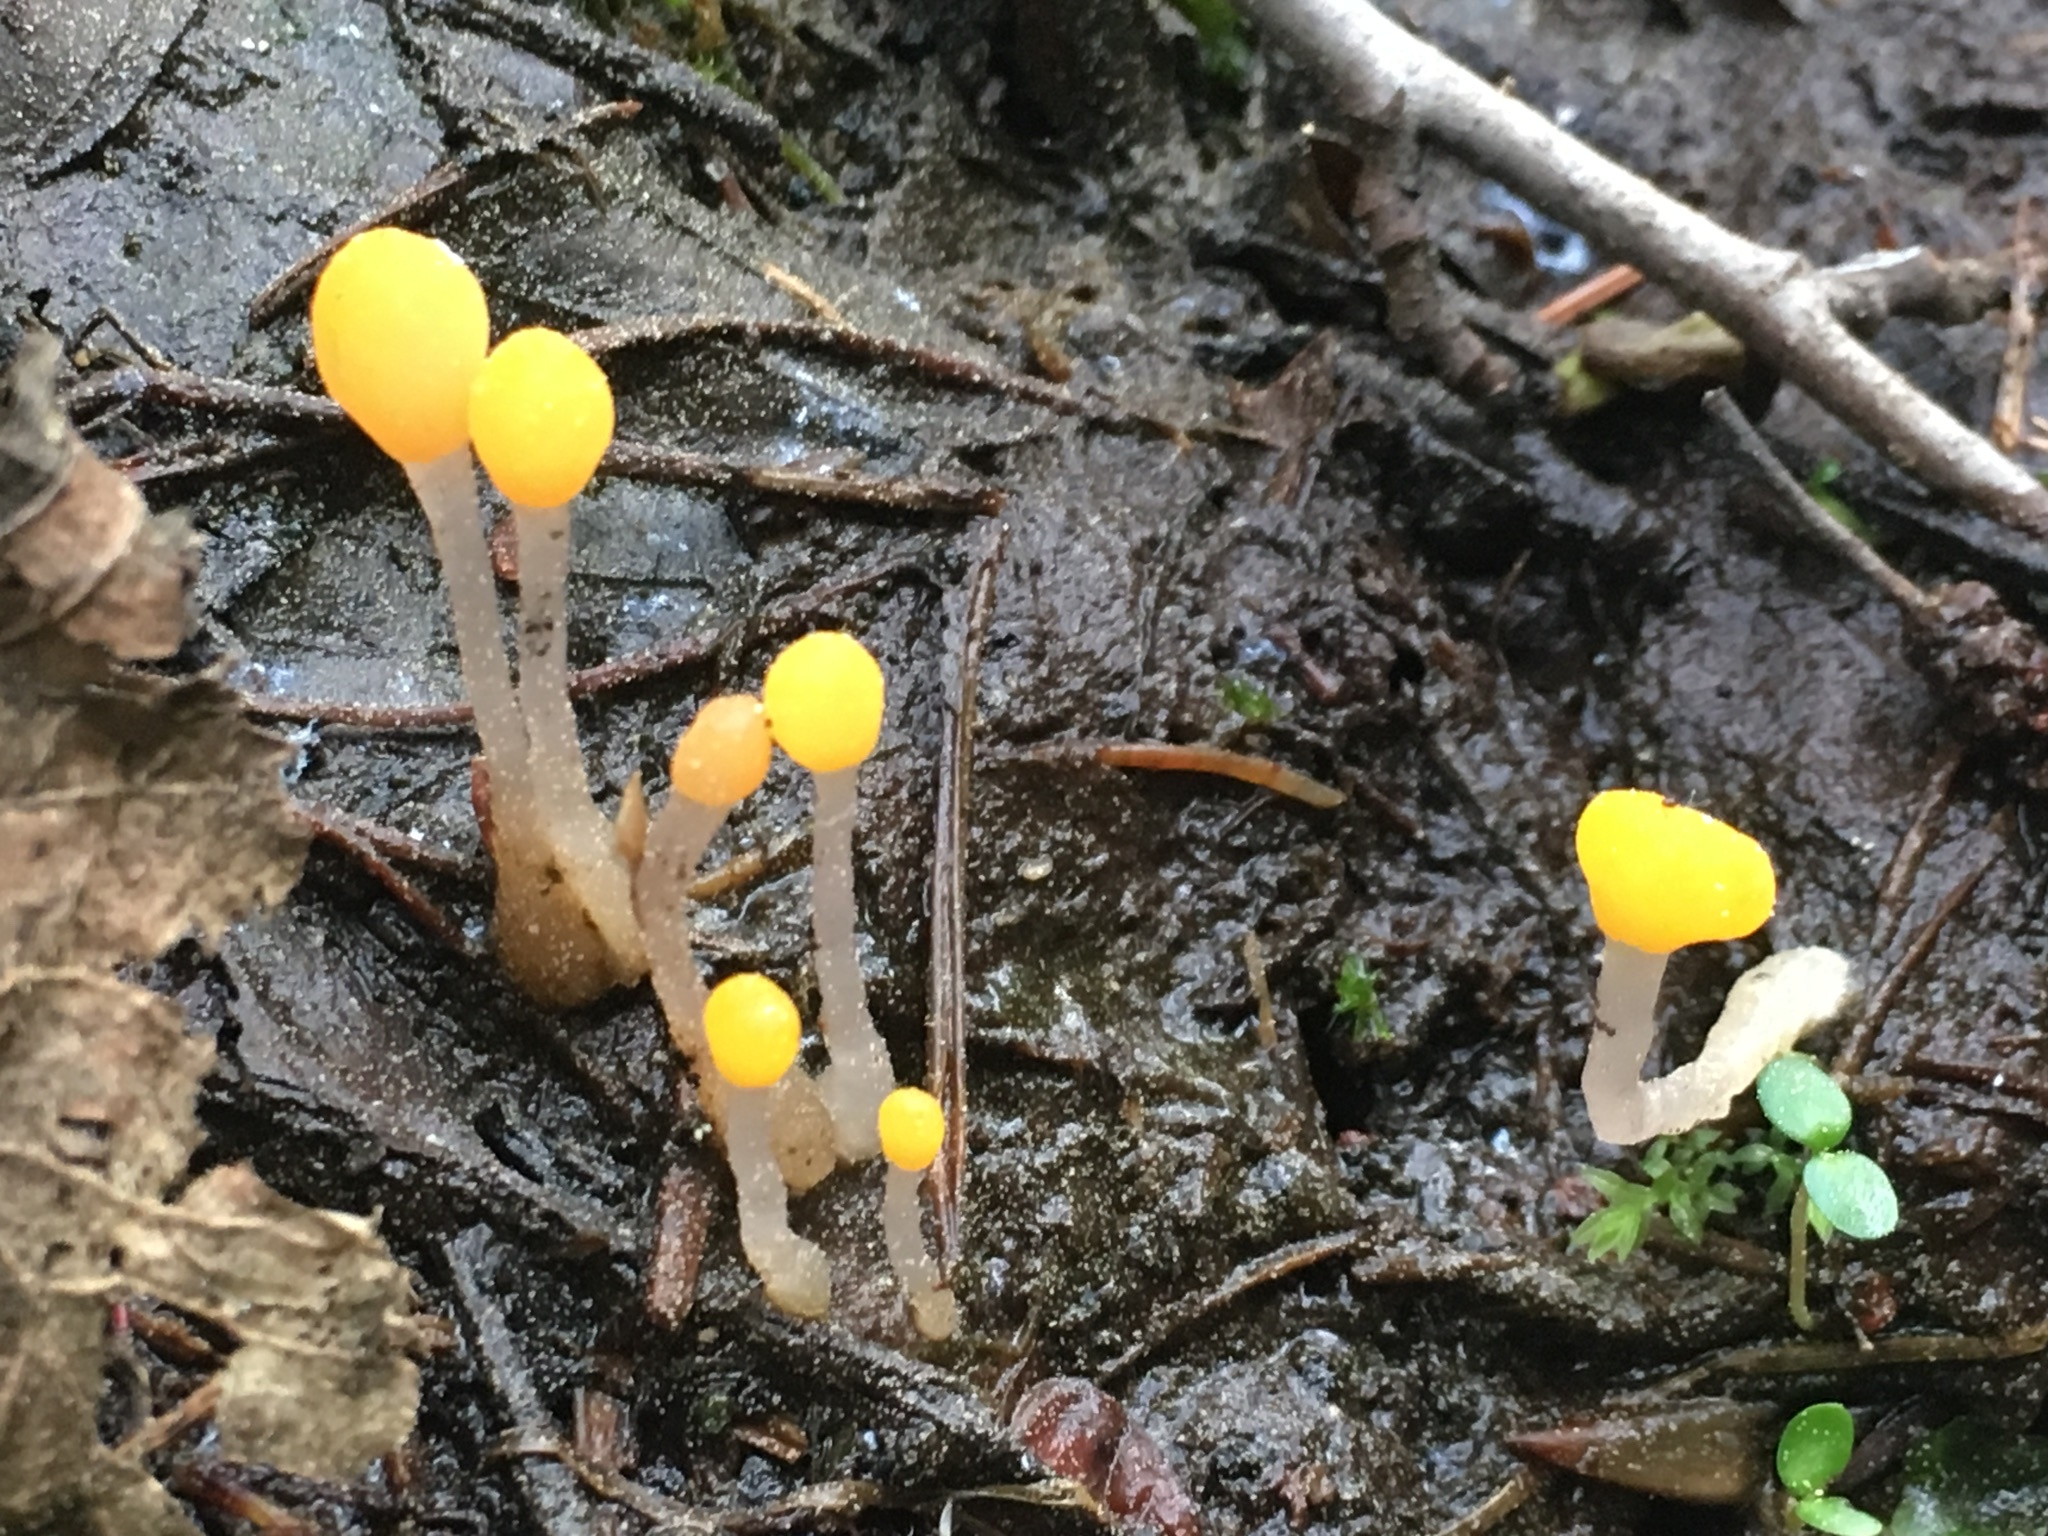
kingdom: Fungi
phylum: Ascomycota
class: Leotiomycetes
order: Helotiales
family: Cenangiaceae
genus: Mitrula
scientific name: Mitrula paludosa
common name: Bog beacon
